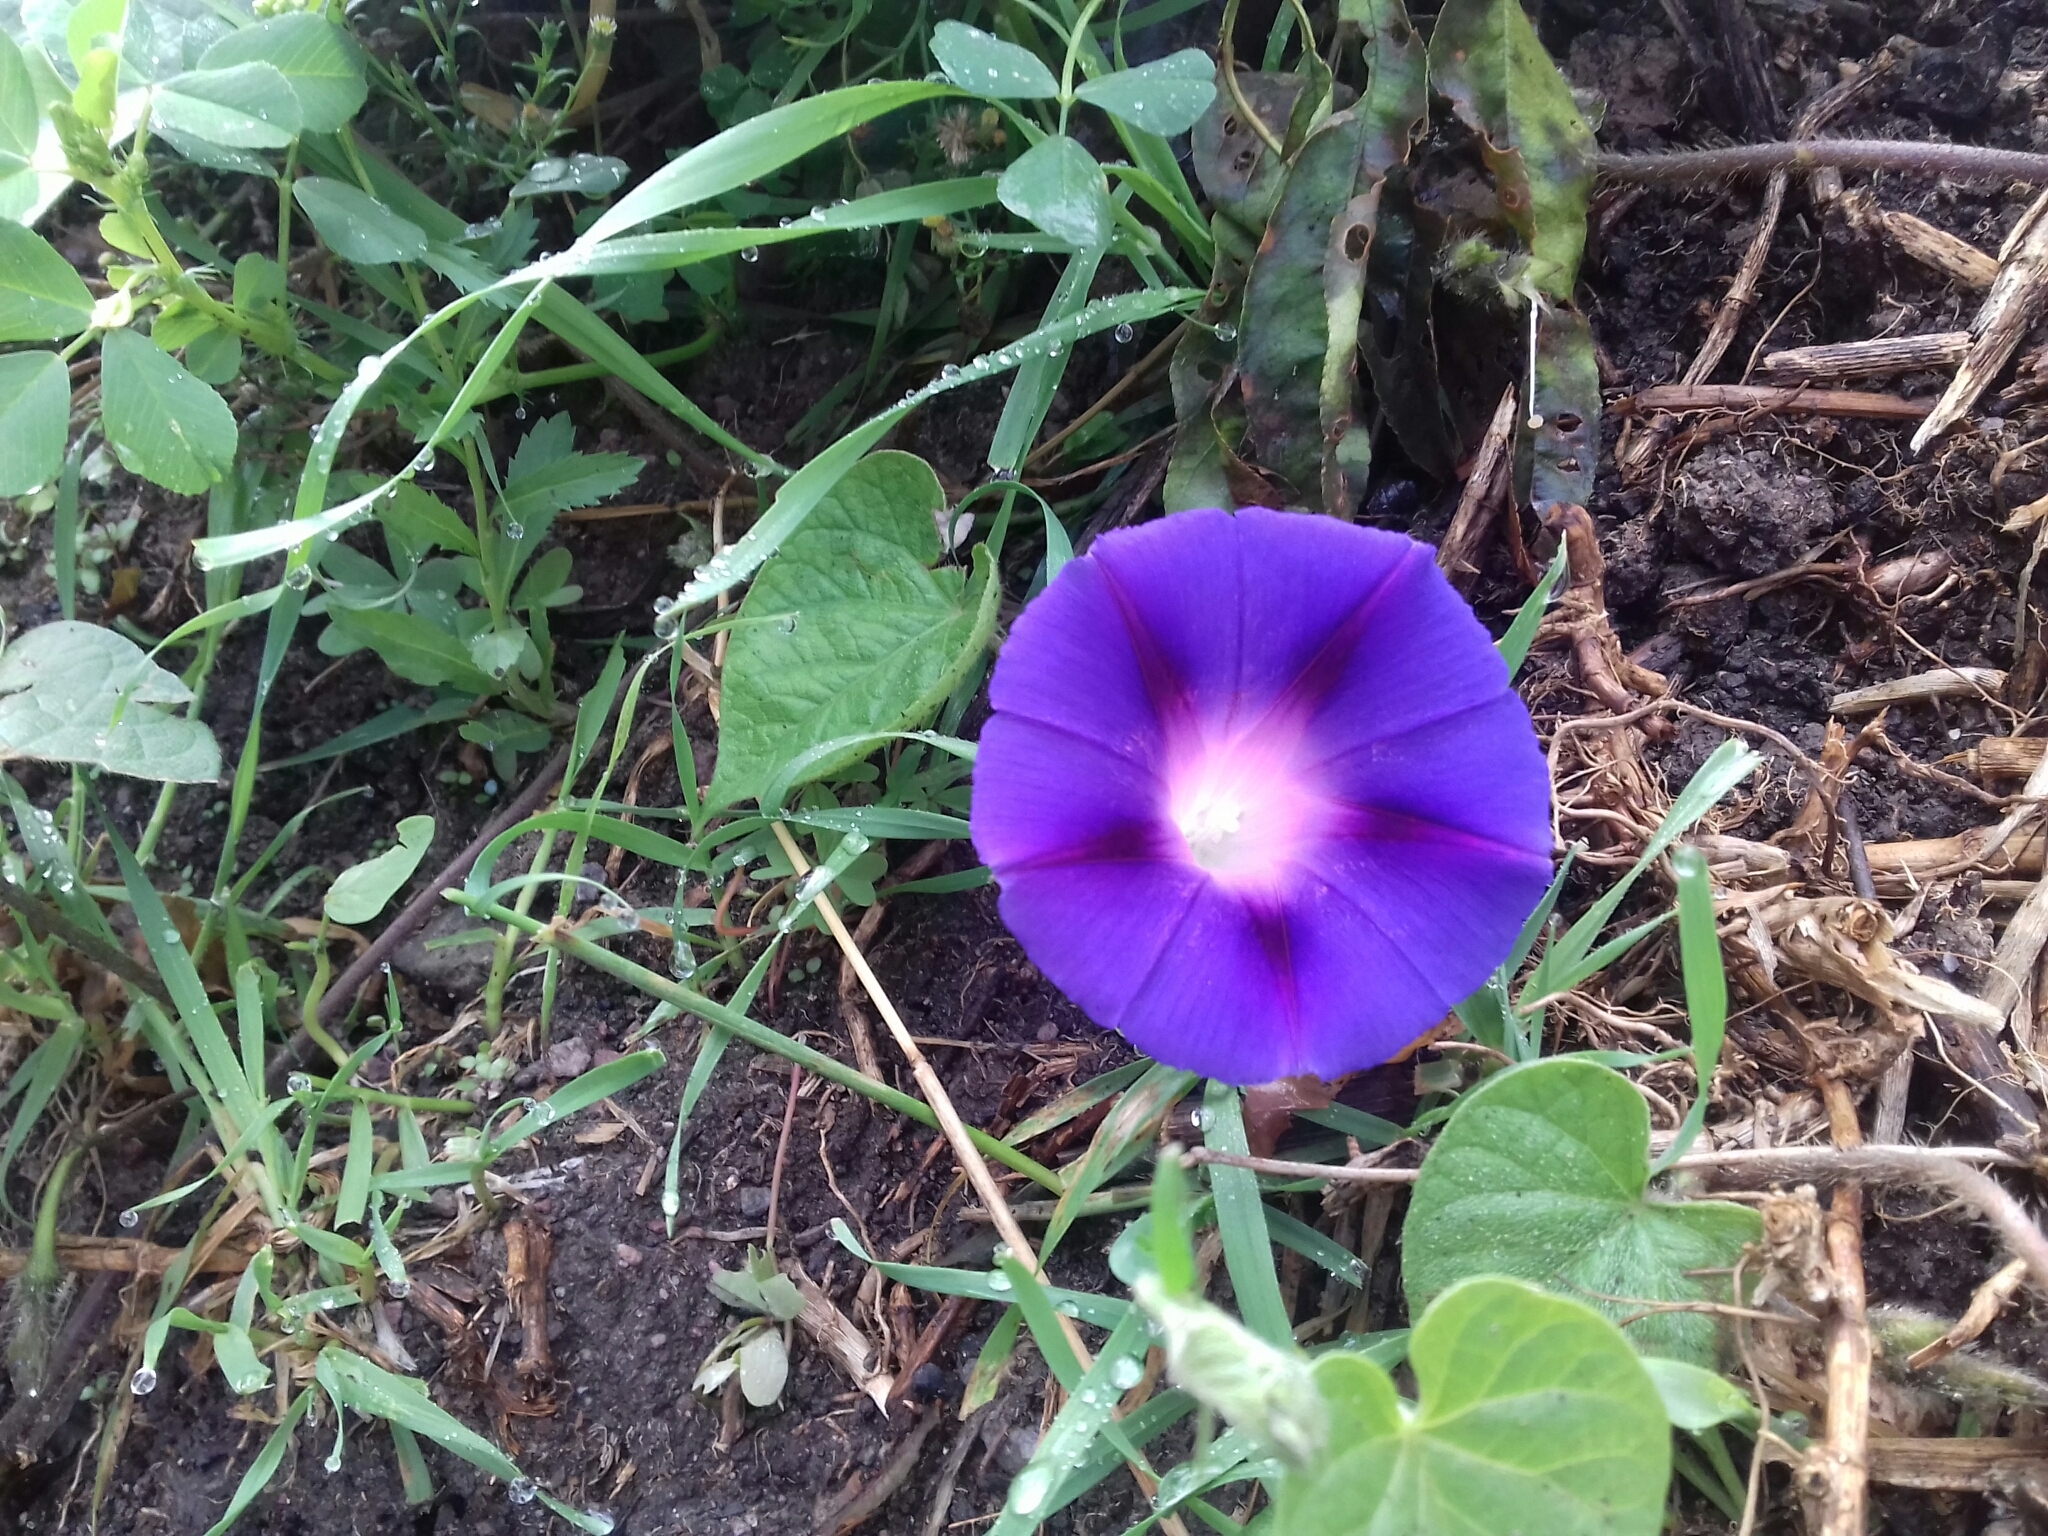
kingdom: Plantae
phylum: Tracheophyta
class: Magnoliopsida
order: Solanales
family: Convolvulaceae
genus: Ipomoea
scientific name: Ipomoea purpurea
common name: Common morning-glory
